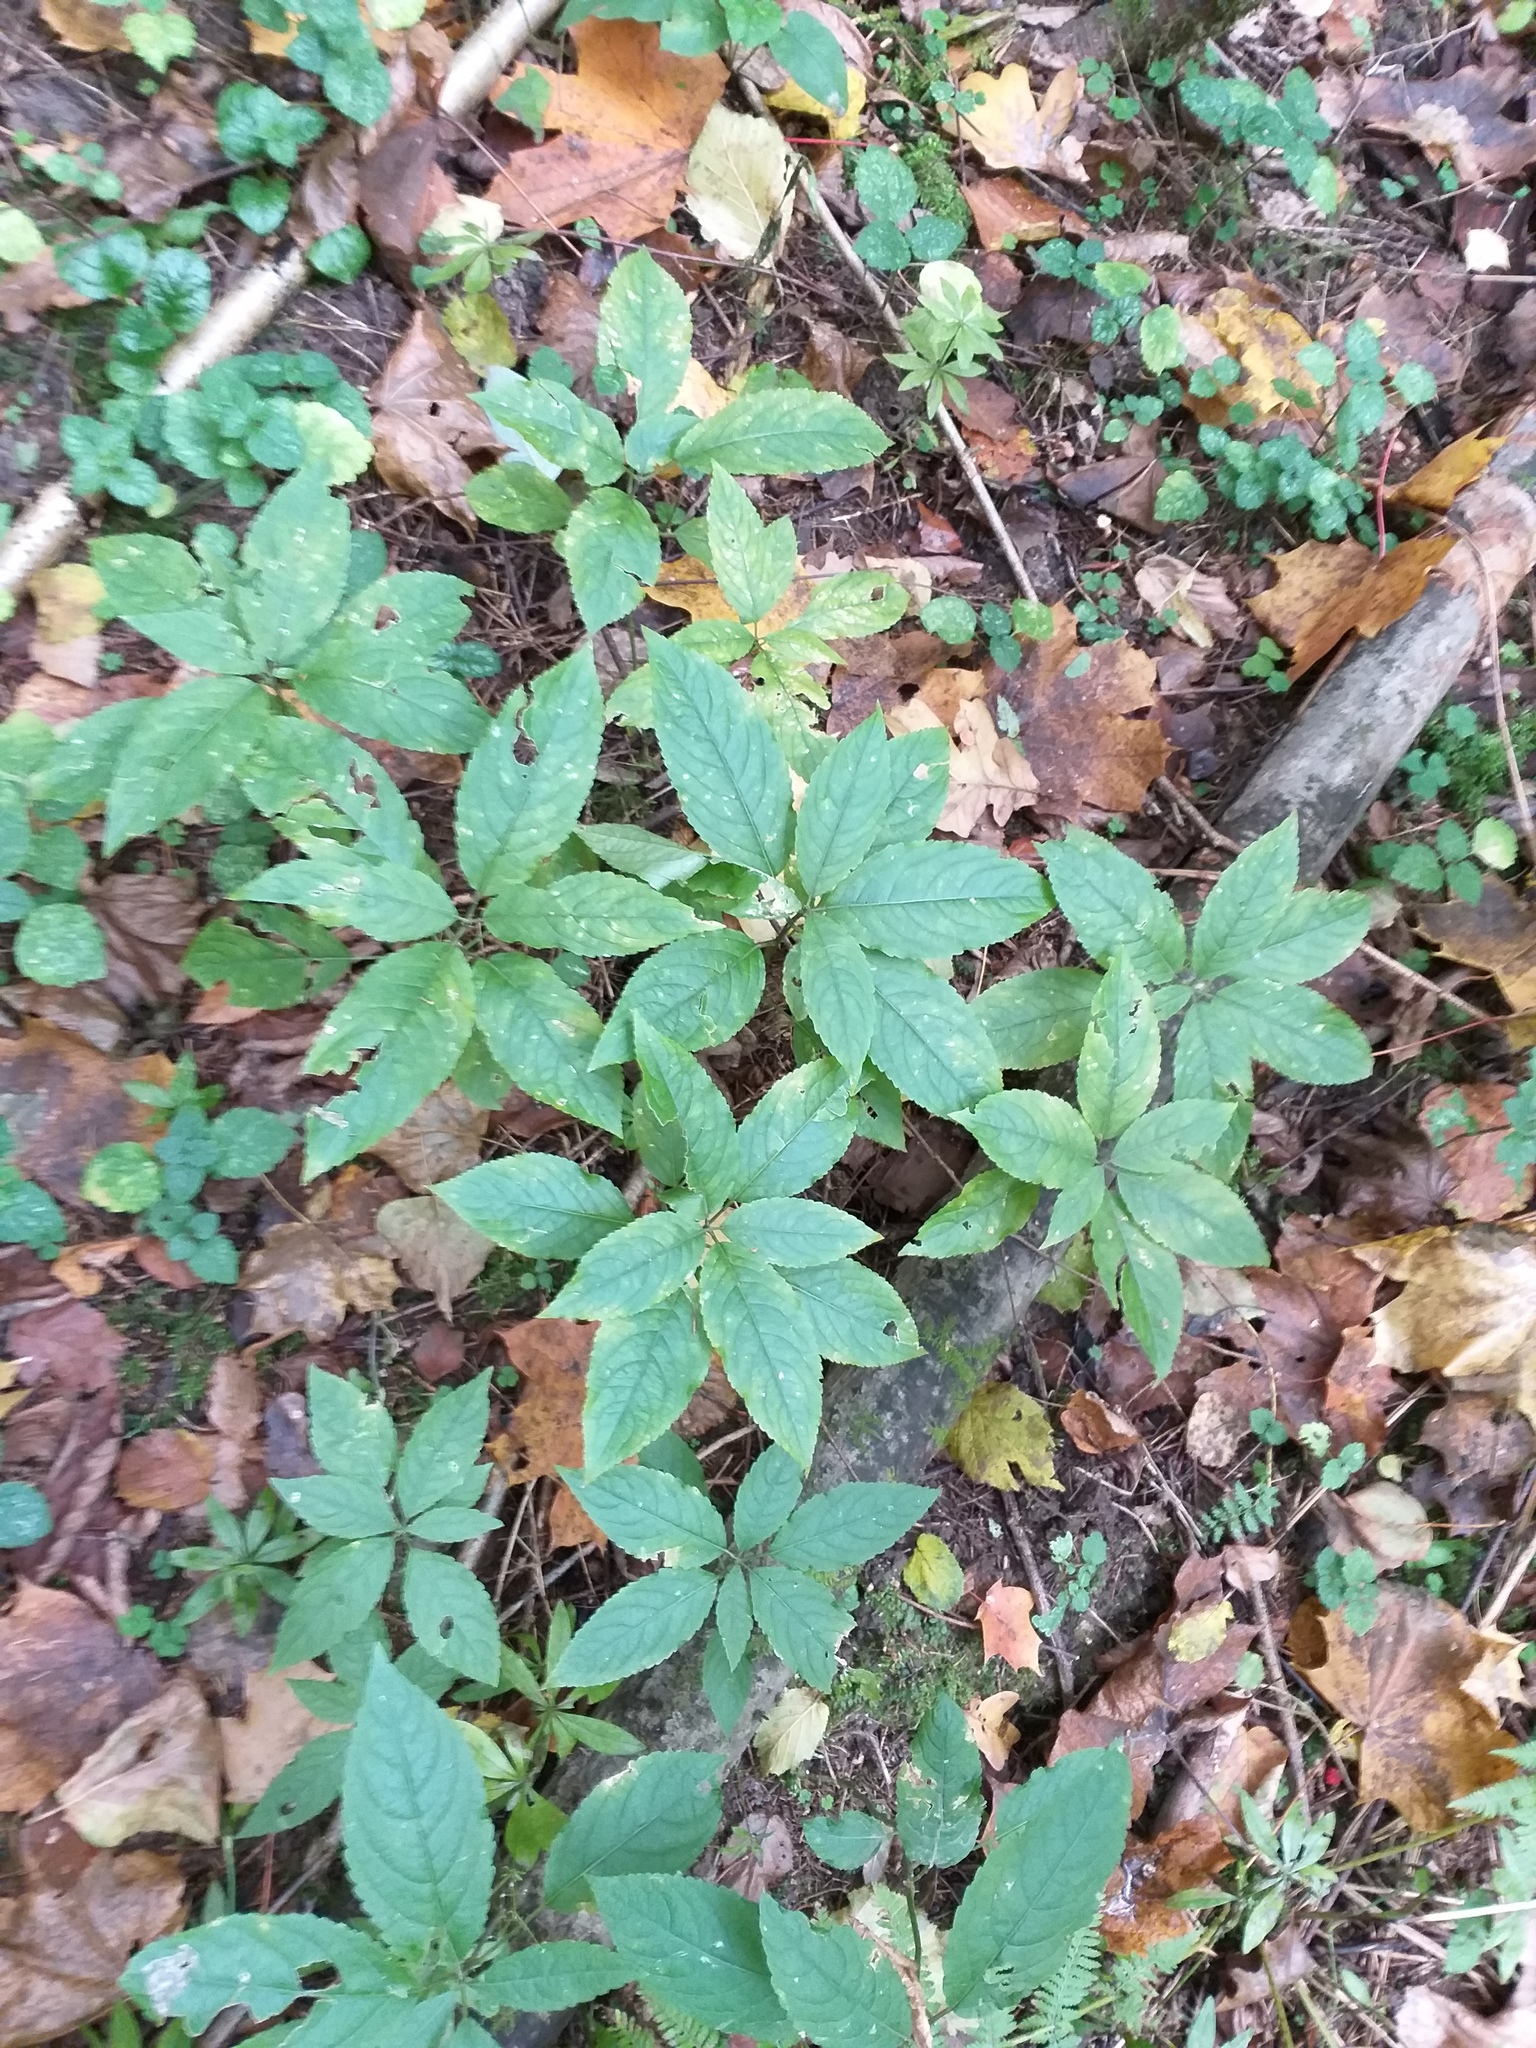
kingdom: Plantae
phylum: Tracheophyta
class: Magnoliopsida
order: Malpighiales
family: Euphorbiaceae
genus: Mercurialis
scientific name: Mercurialis perennis
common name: Dog mercury
